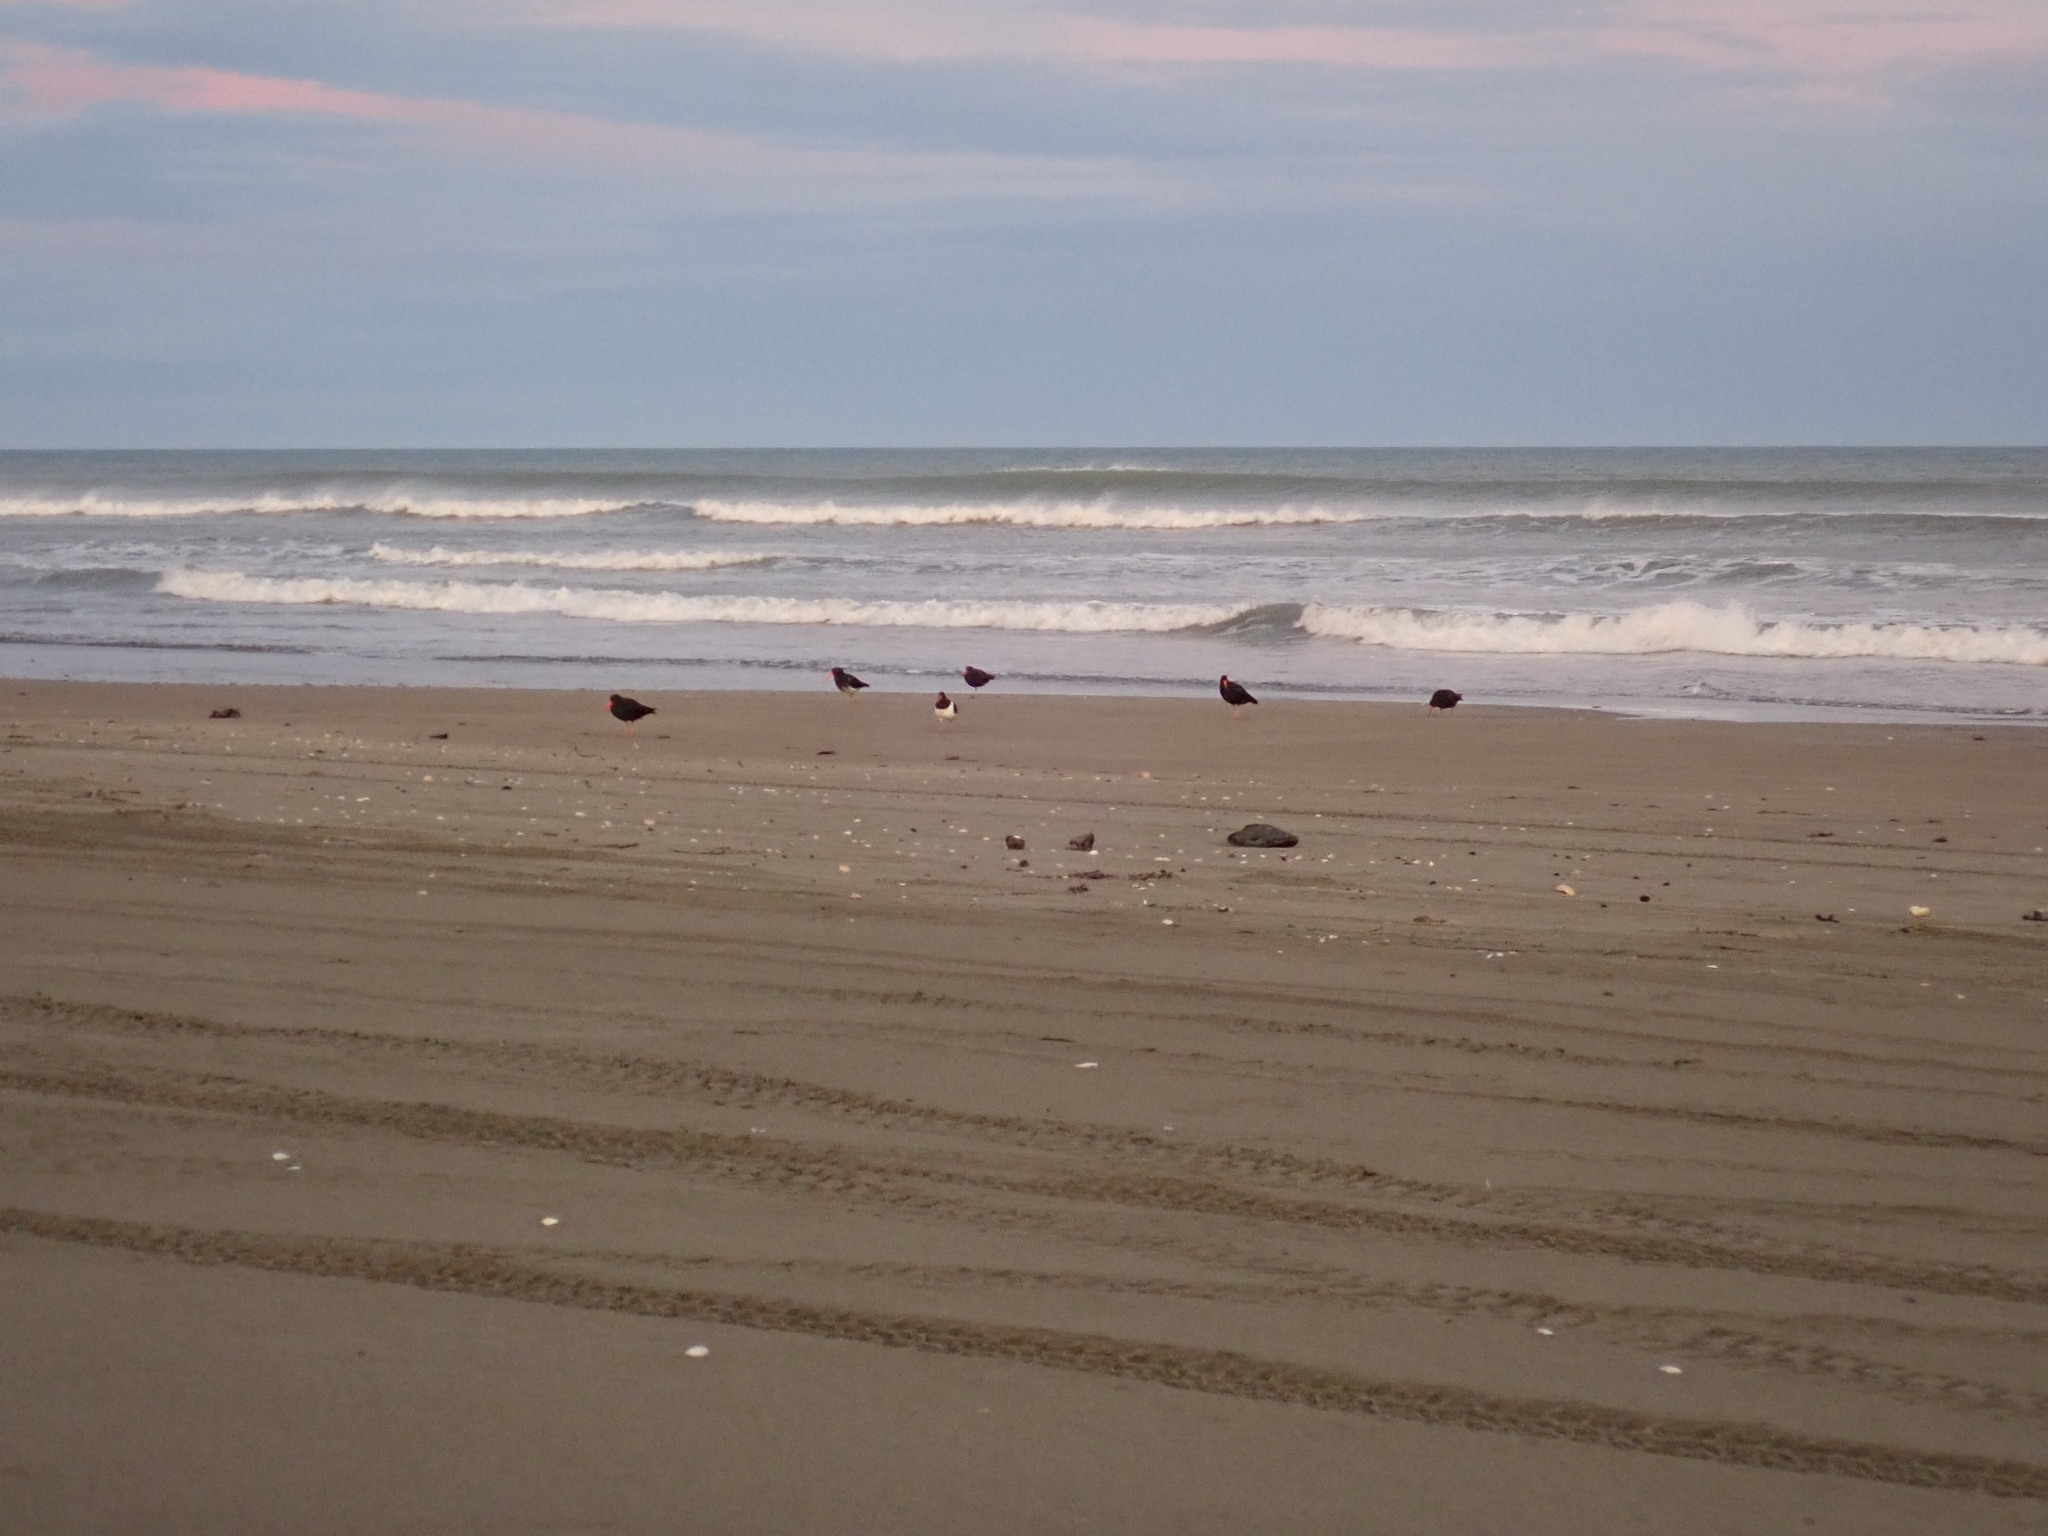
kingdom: Animalia
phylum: Chordata
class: Aves
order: Charadriiformes
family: Haematopodidae
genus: Haematopus
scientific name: Haematopus unicolor
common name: Variable oystercatcher
